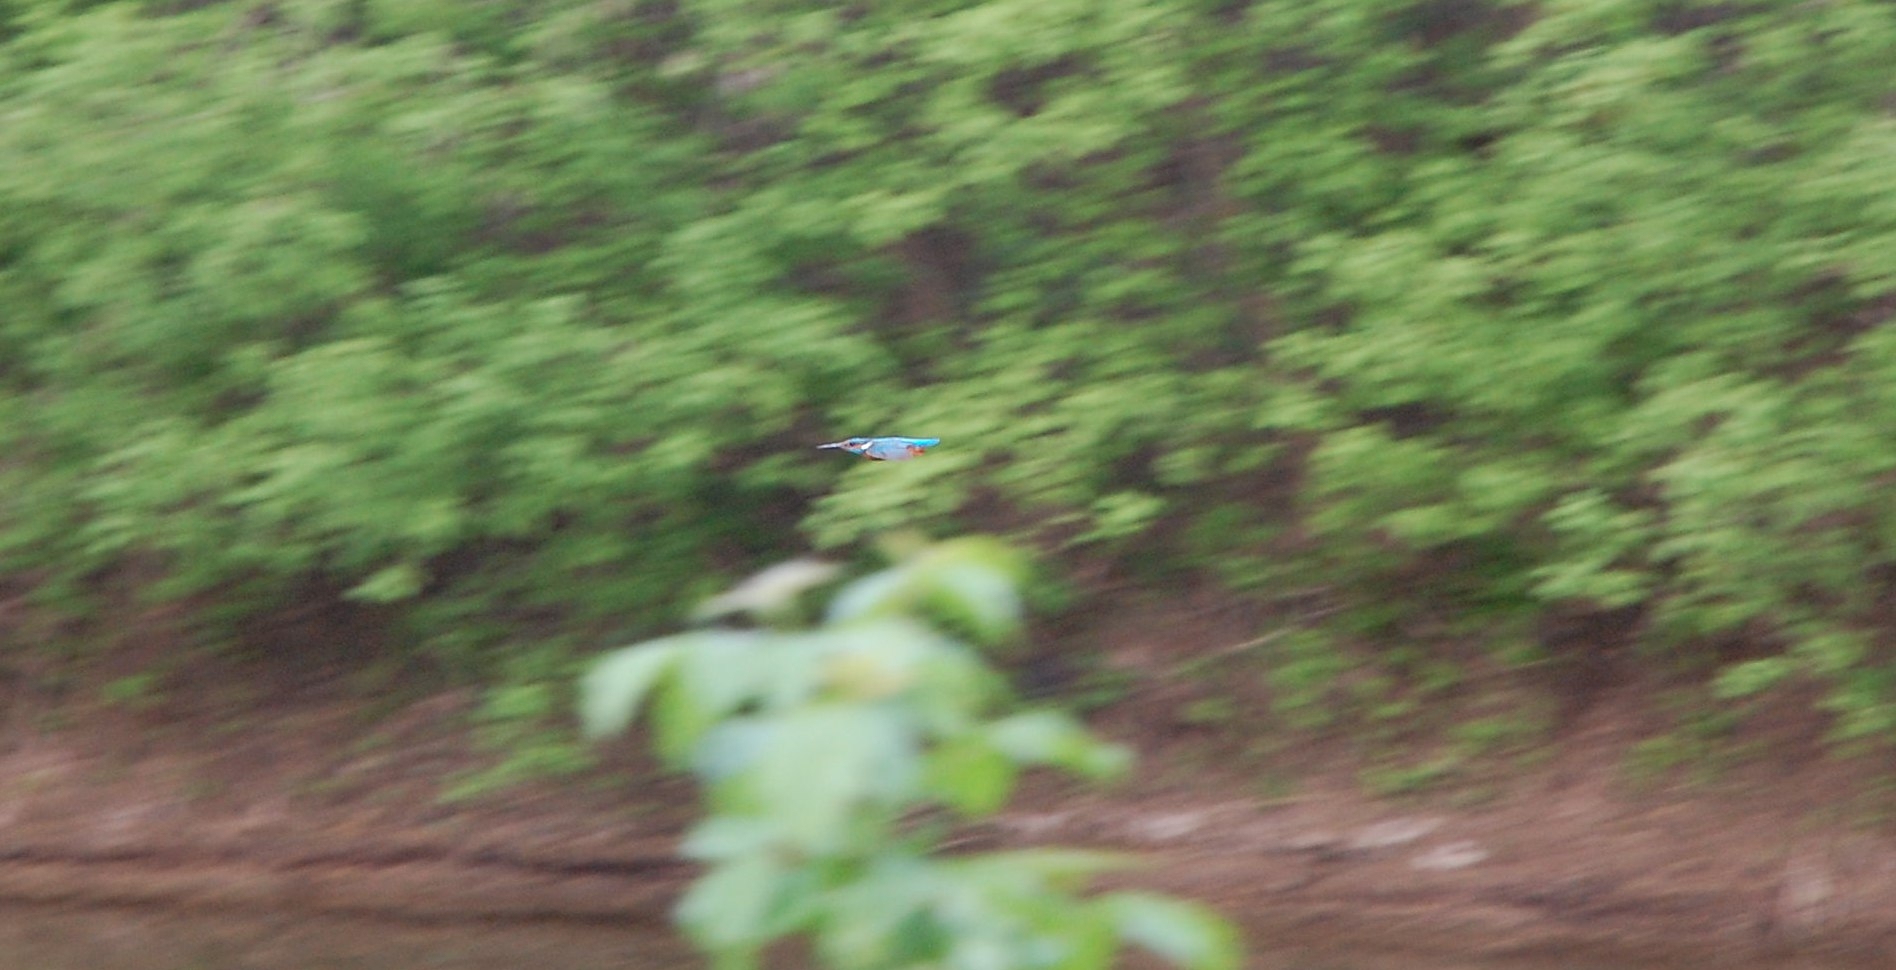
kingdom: Animalia
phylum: Chordata
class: Aves
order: Coraciiformes
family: Alcedinidae
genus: Alcedo
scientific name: Alcedo atthis
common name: Common kingfisher
